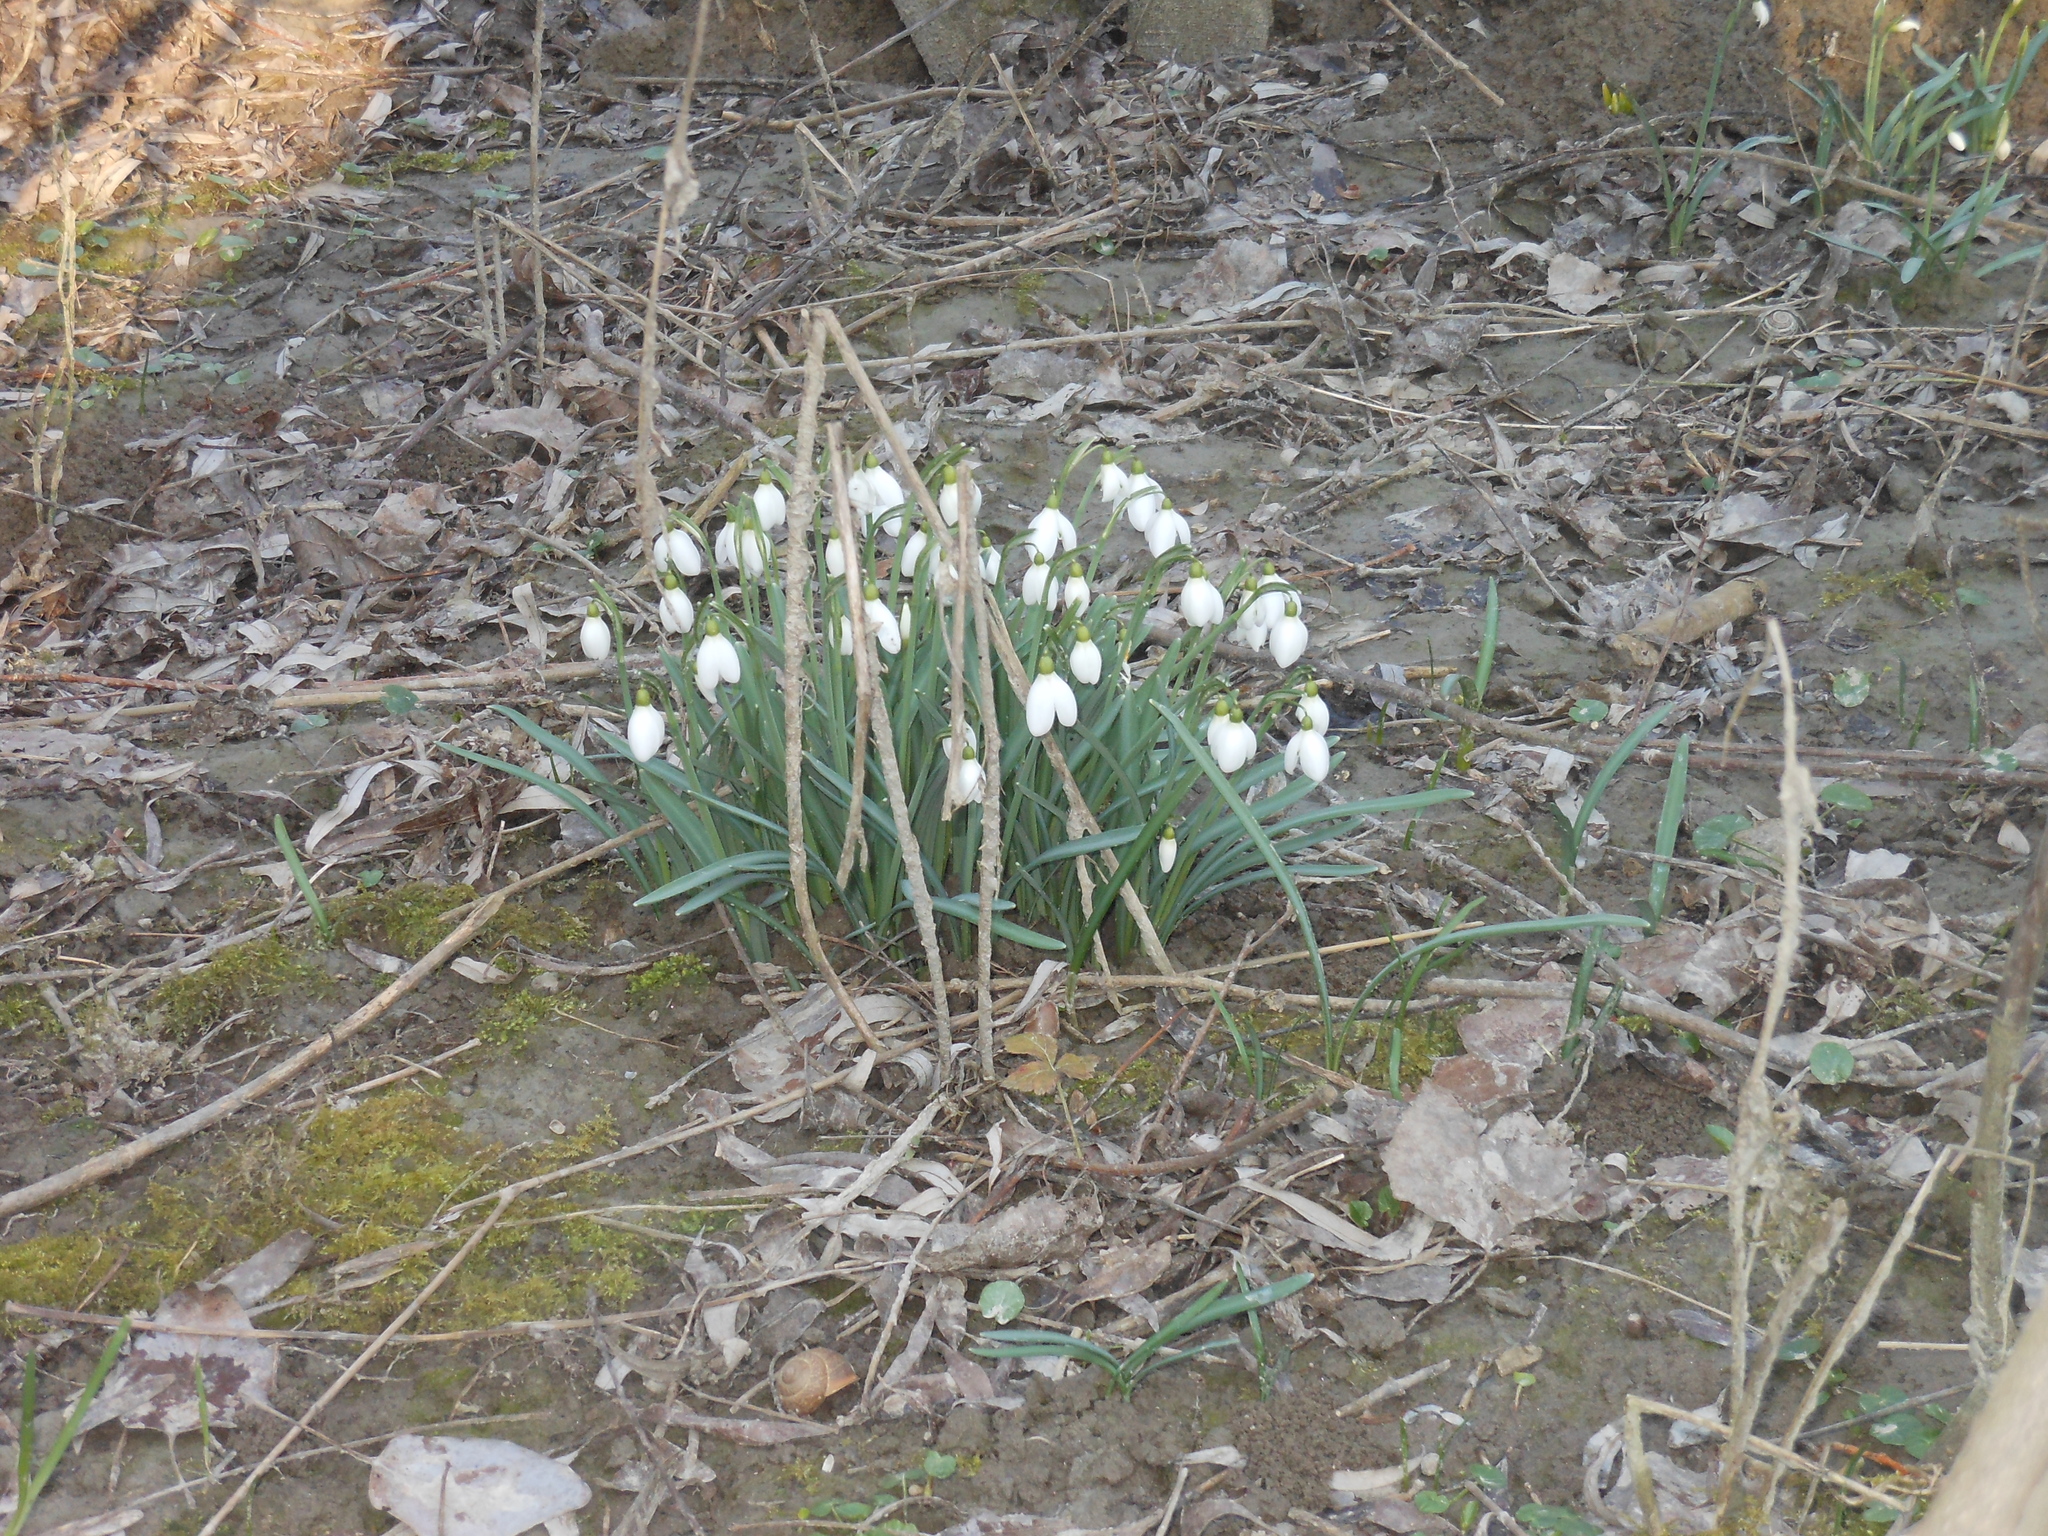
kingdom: Plantae
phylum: Tracheophyta
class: Liliopsida
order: Asparagales
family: Amaryllidaceae
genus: Galanthus
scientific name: Galanthus nivalis
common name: Snowdrop
